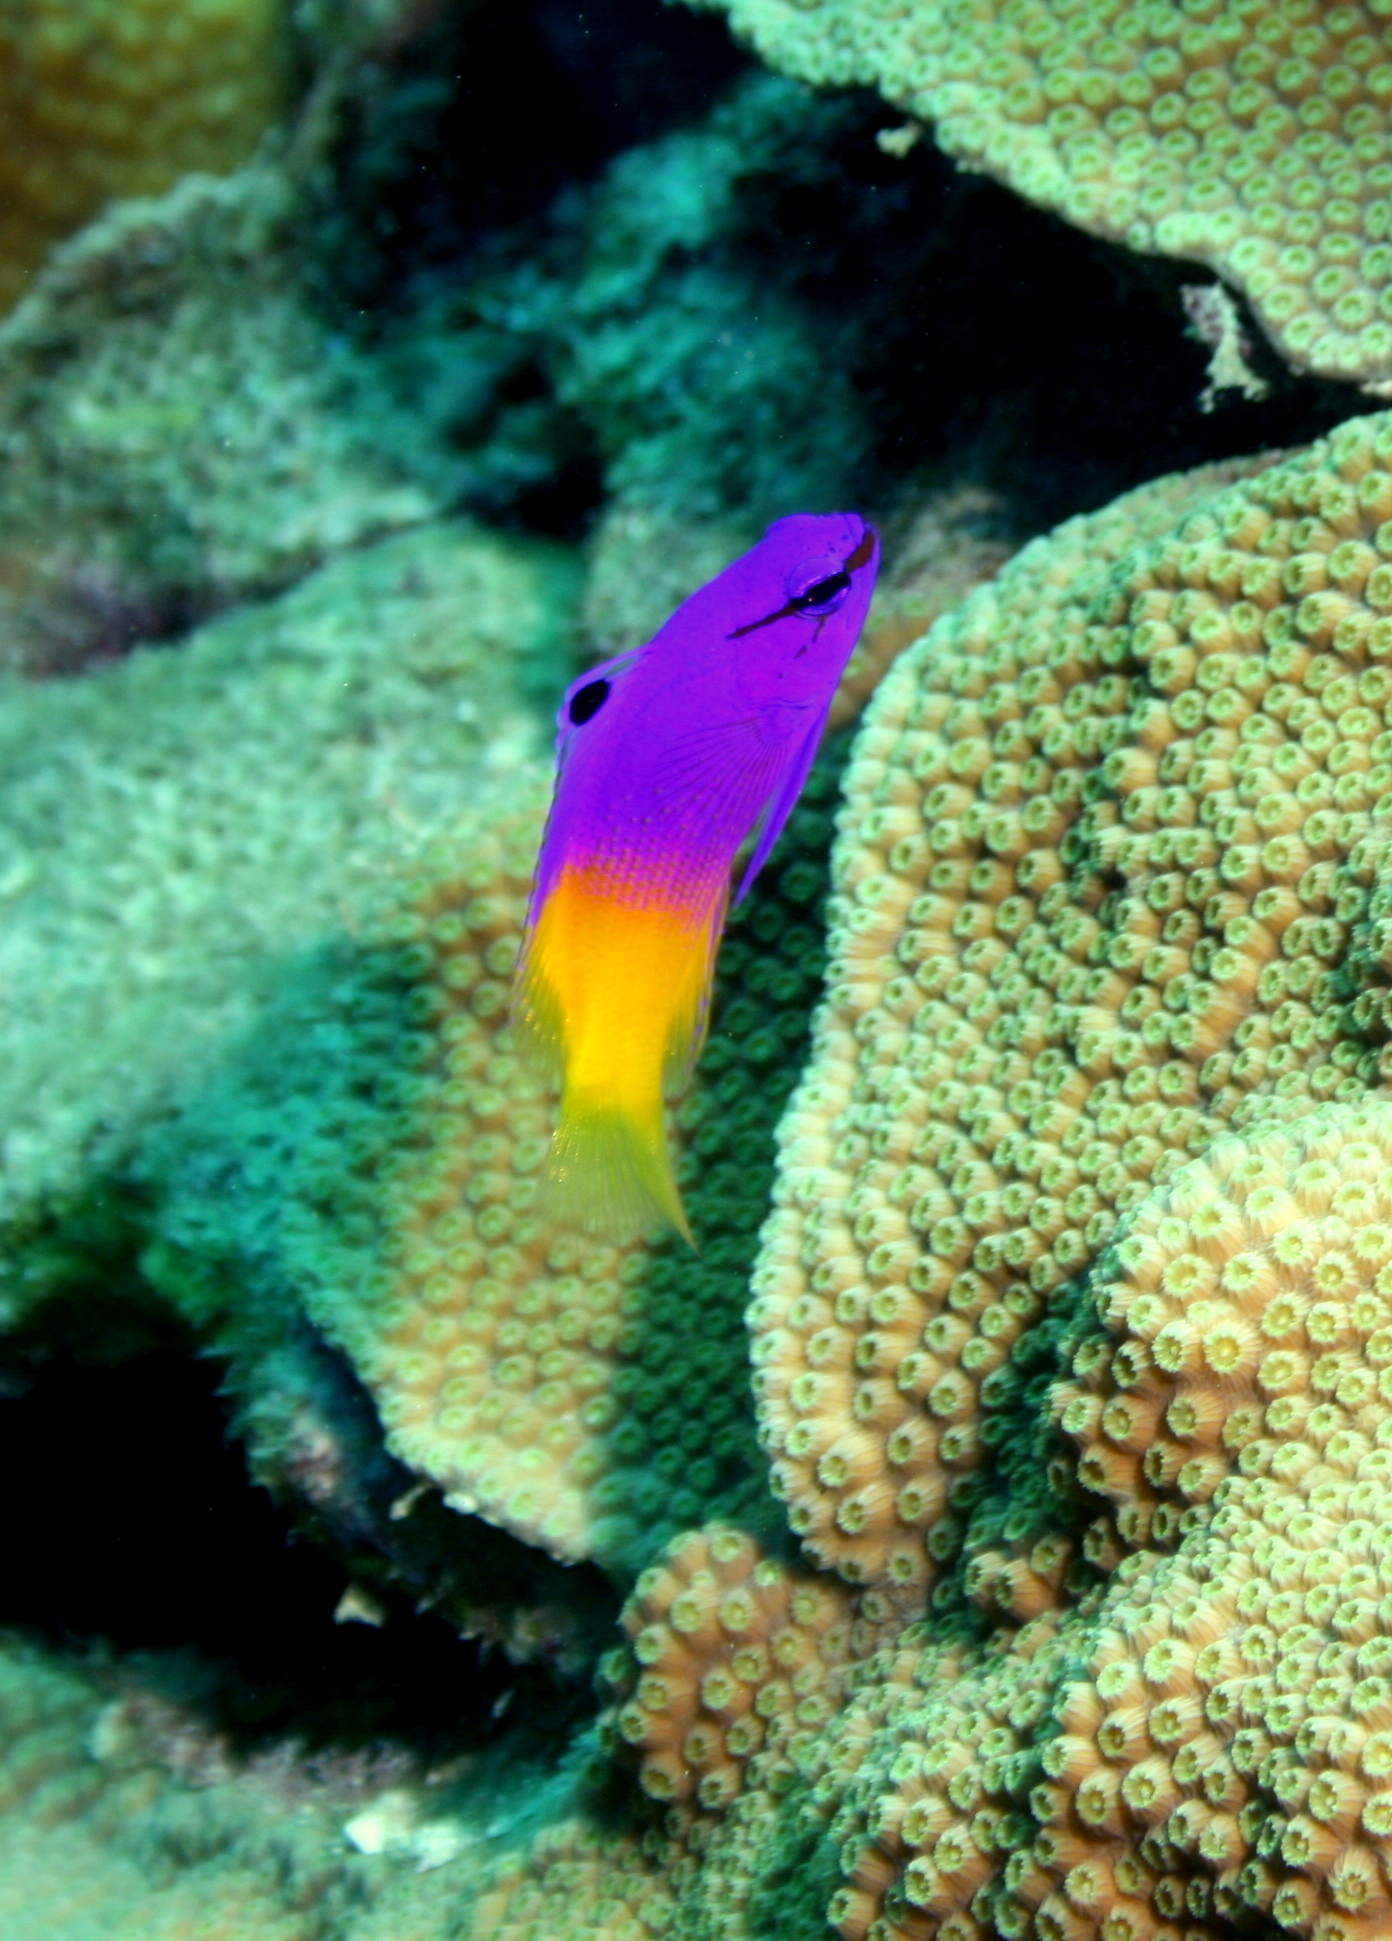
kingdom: Animalia
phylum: Chordata
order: Perciformes
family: Grammatidae
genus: Gramma
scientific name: Gramma loreto
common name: Fairy basslet
